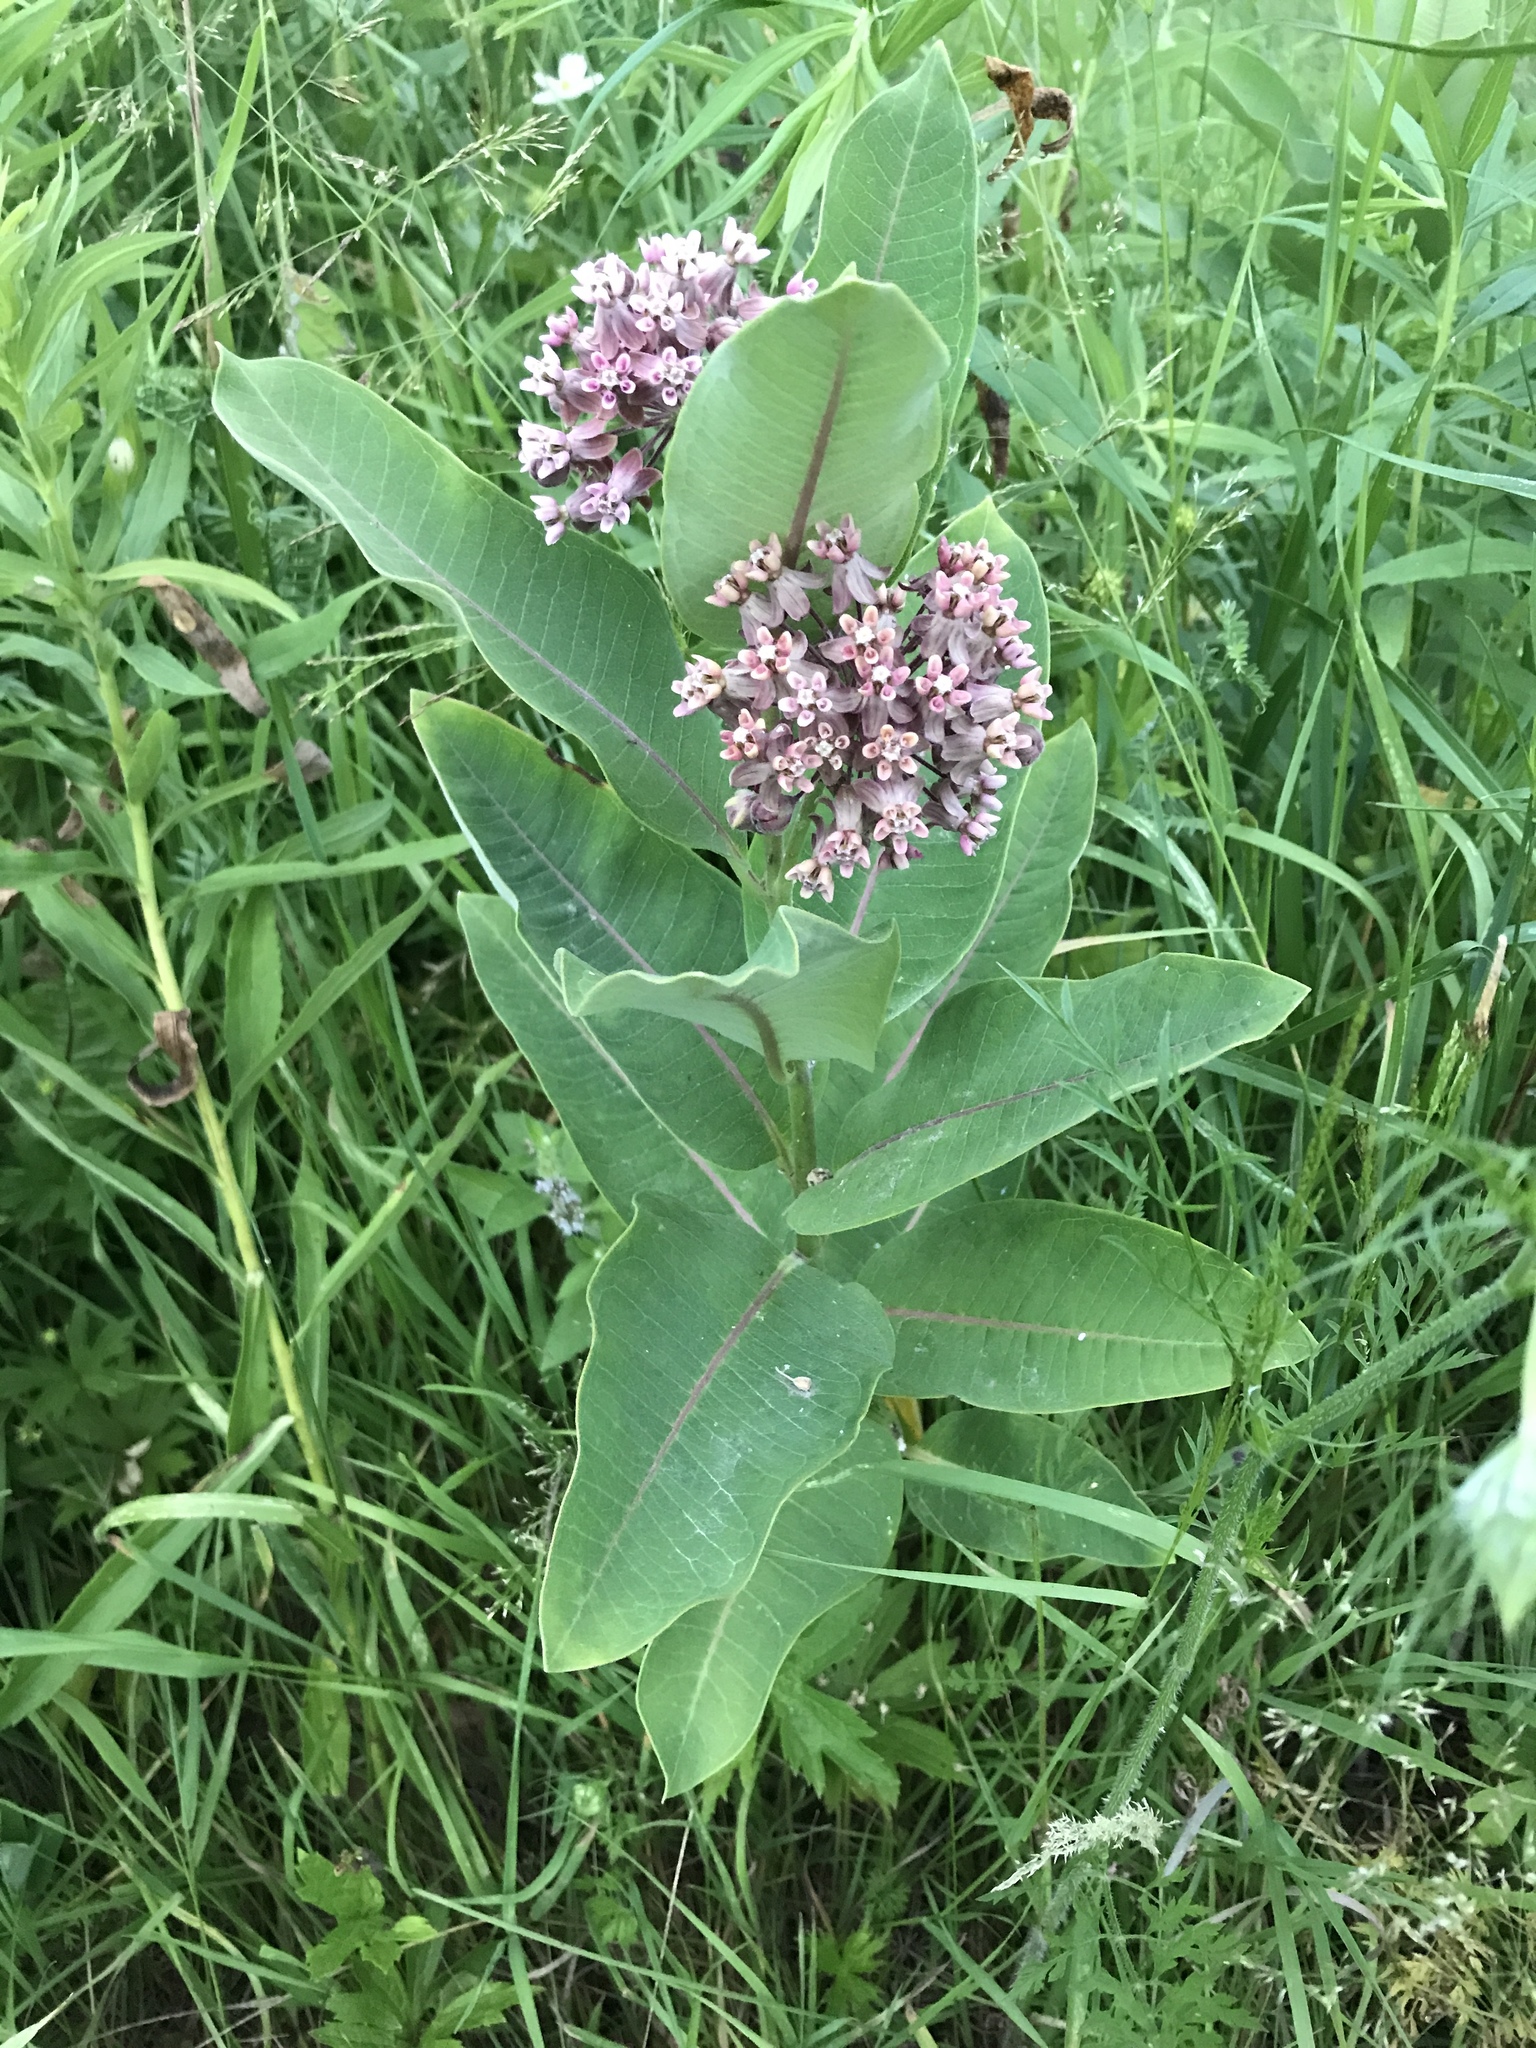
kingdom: Plantae
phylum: Tracheophyta
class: Magnoliopsida
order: Gentianales
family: Apocynaceae
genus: Asclepias
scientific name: Asclepias syriaca
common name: Common milkweed
